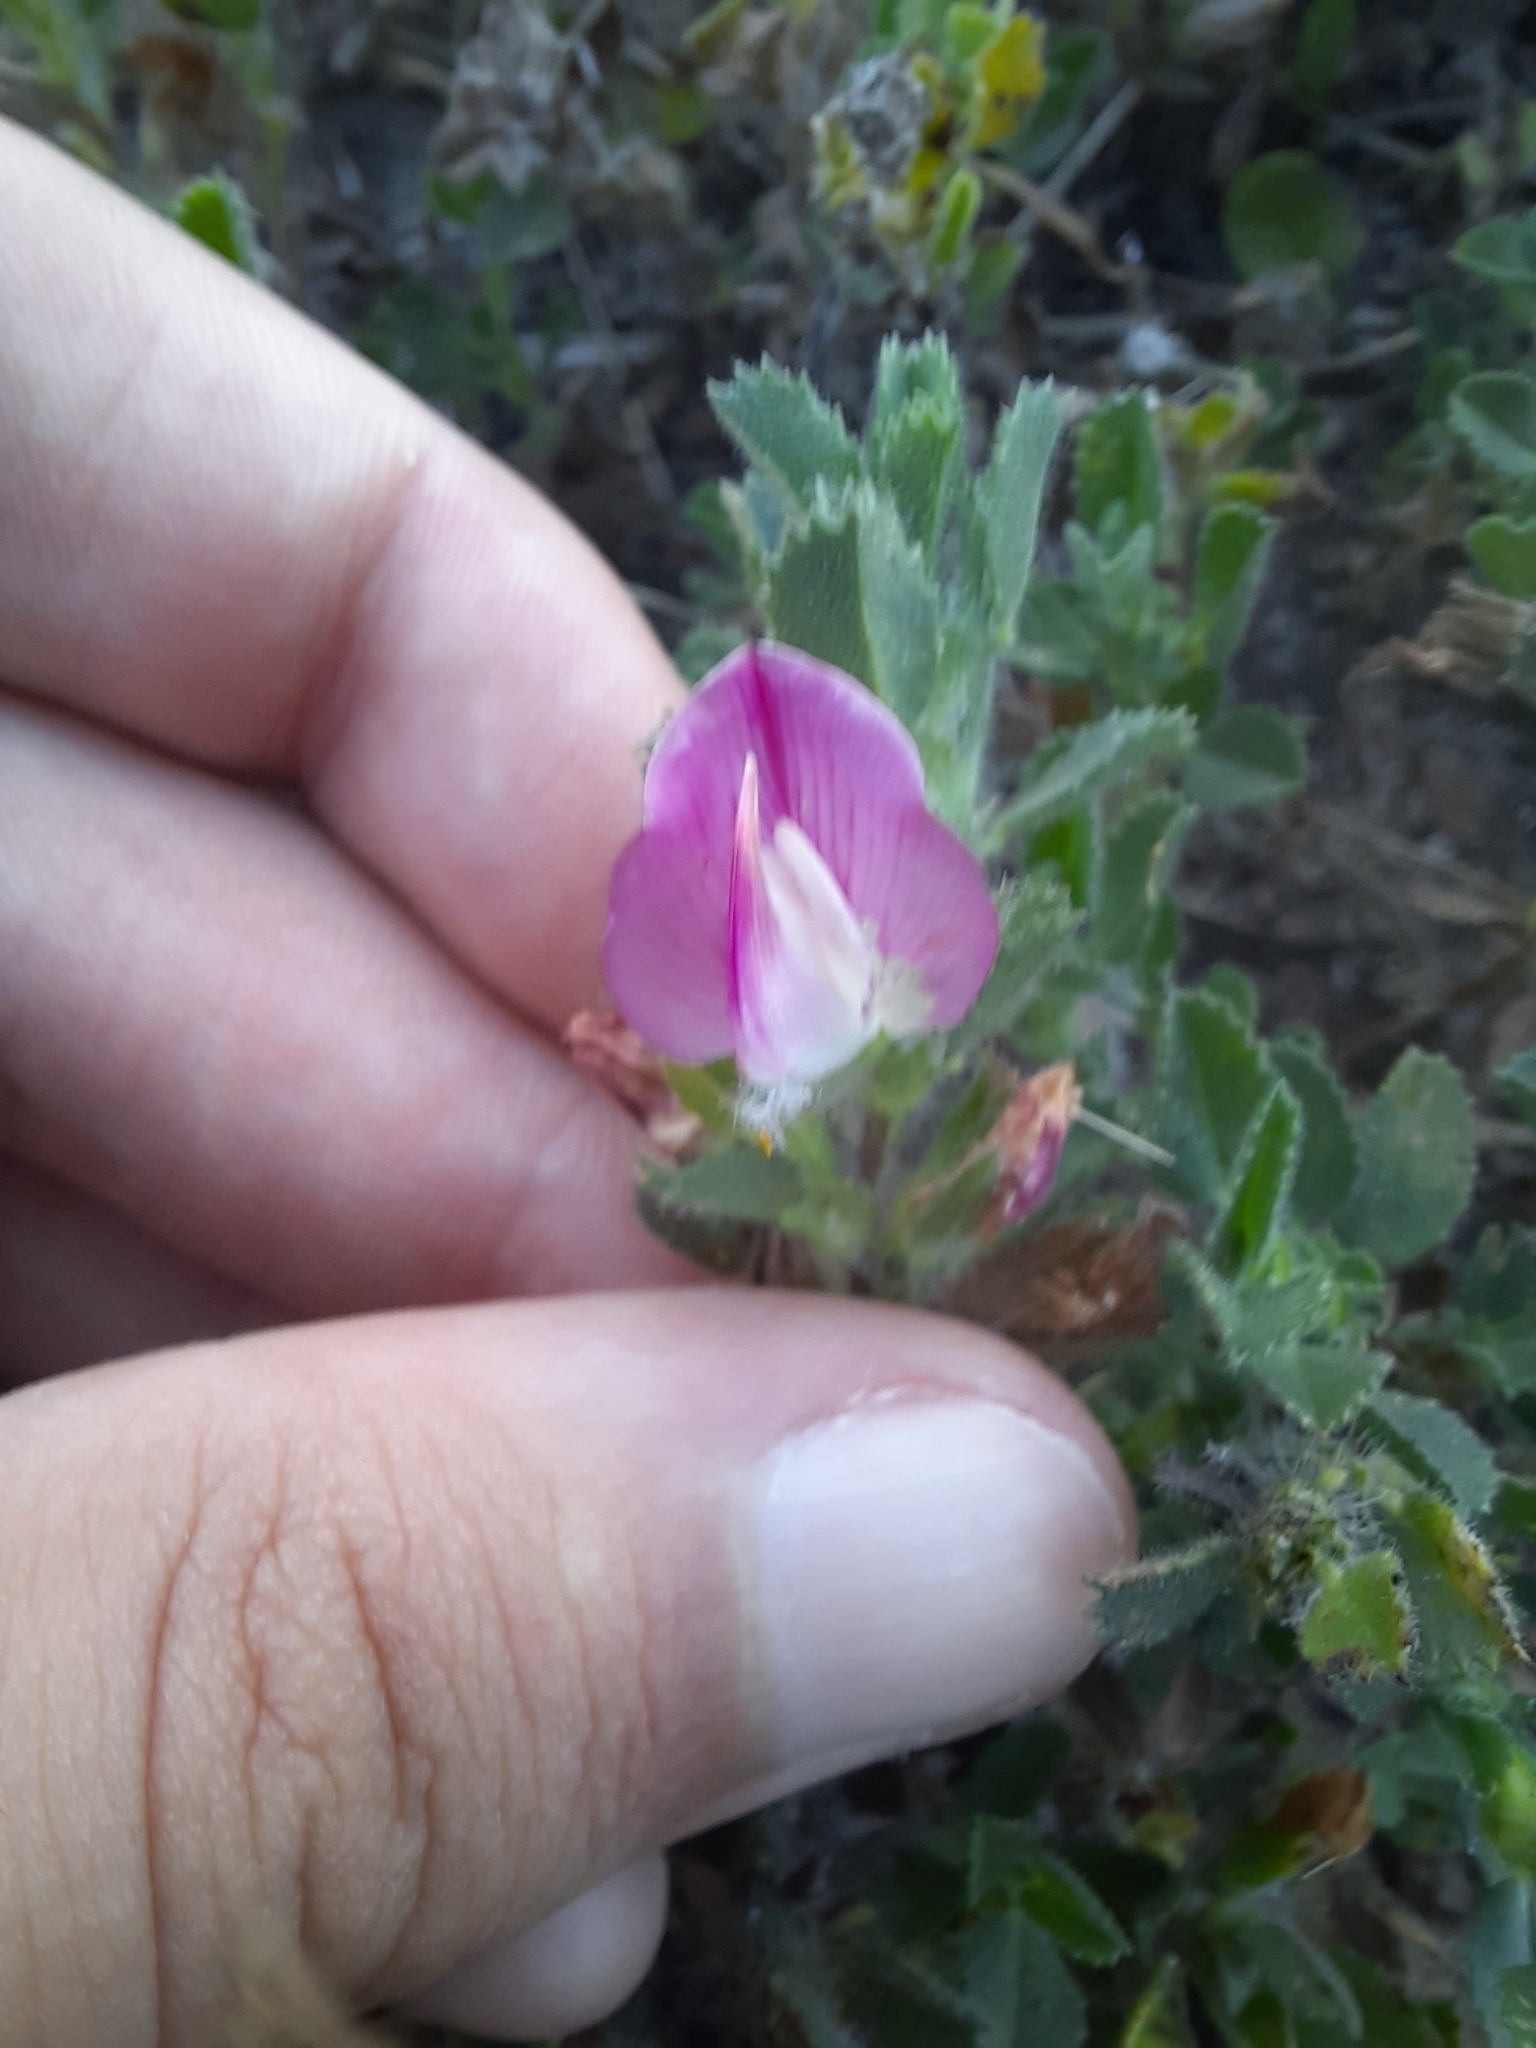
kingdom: Plantae
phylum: Tracheophyta
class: Magnoliopsida
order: Fabales
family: Fabaceae
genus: Ononis
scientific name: Ononis spinosa
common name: Spiny restharrow
